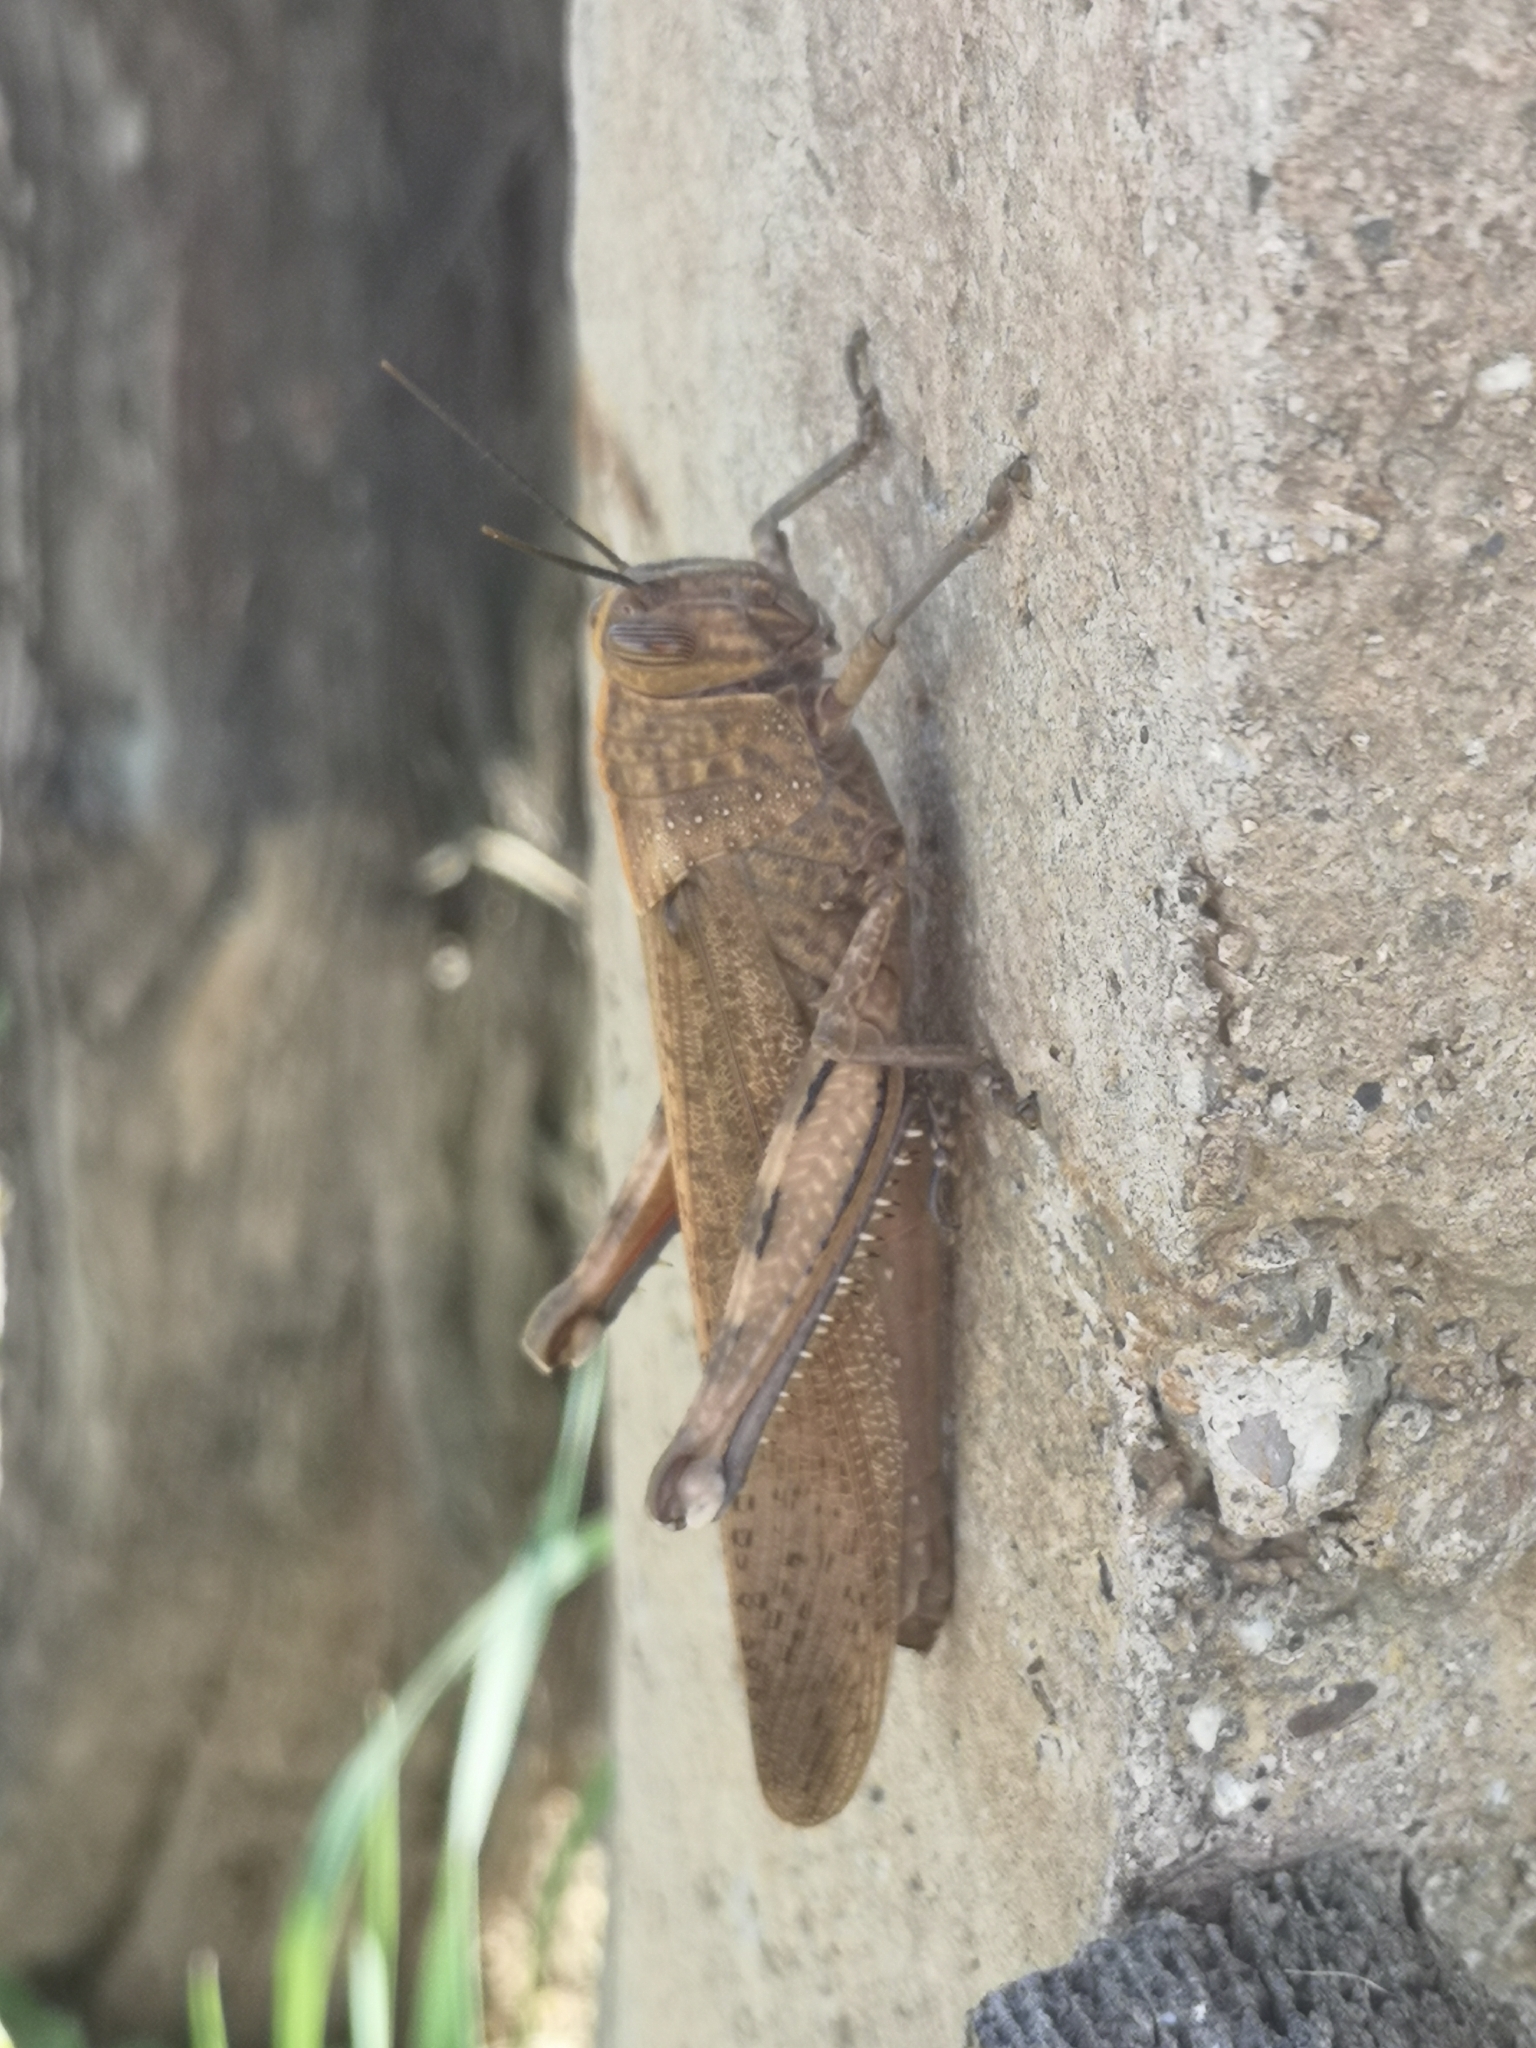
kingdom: Animalia
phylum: Arthropoda
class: Insecta
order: Orthoptera
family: Acrididae
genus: Anacridium
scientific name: Anacridium aegyptium
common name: Egyptian grasshopper
